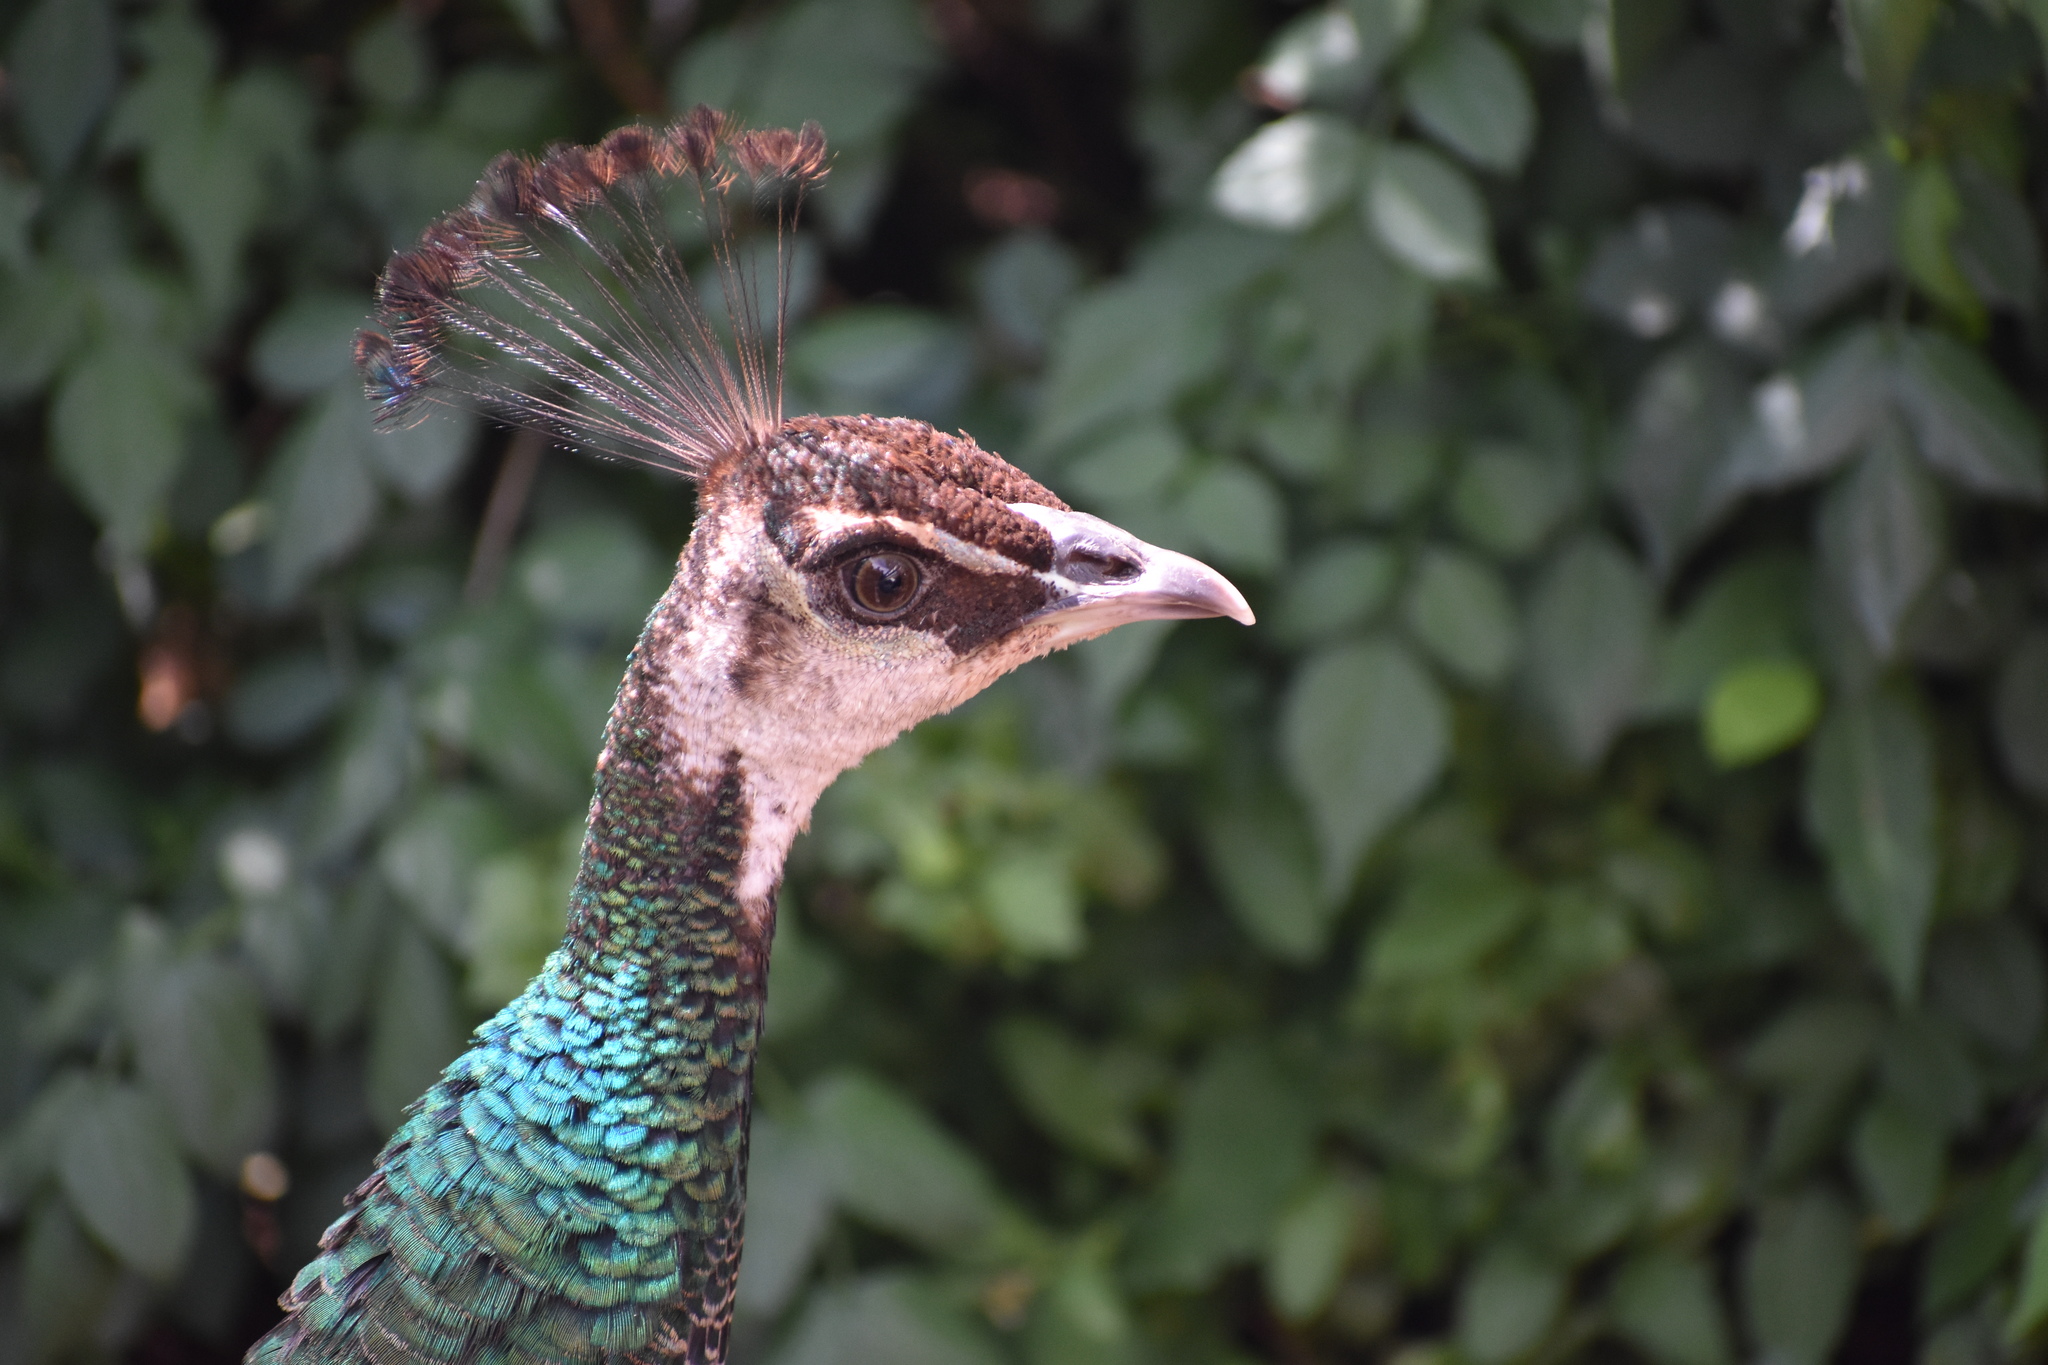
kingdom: Animalia
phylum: Chordata
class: Aves
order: Galliformes
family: Phasianidae
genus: Pavo
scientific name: Pavo cristatus
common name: Indian peafowl
